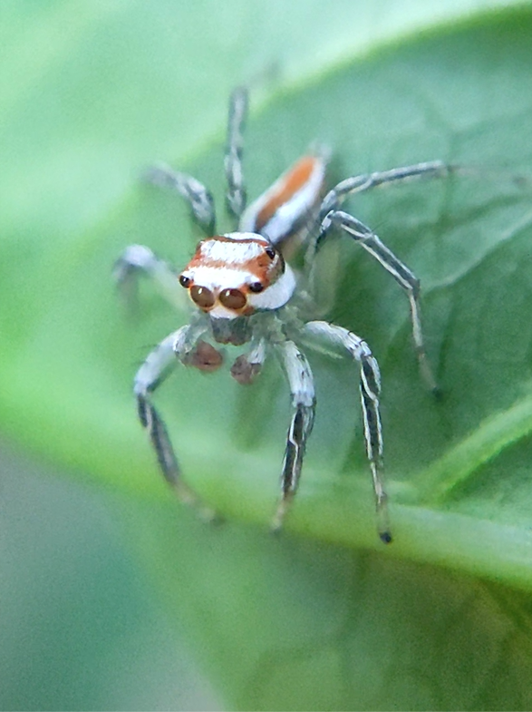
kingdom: Animalia
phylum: Arthropoda
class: Arachnida
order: Araneae
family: Salticidae
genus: Chira
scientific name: Chira simoni
